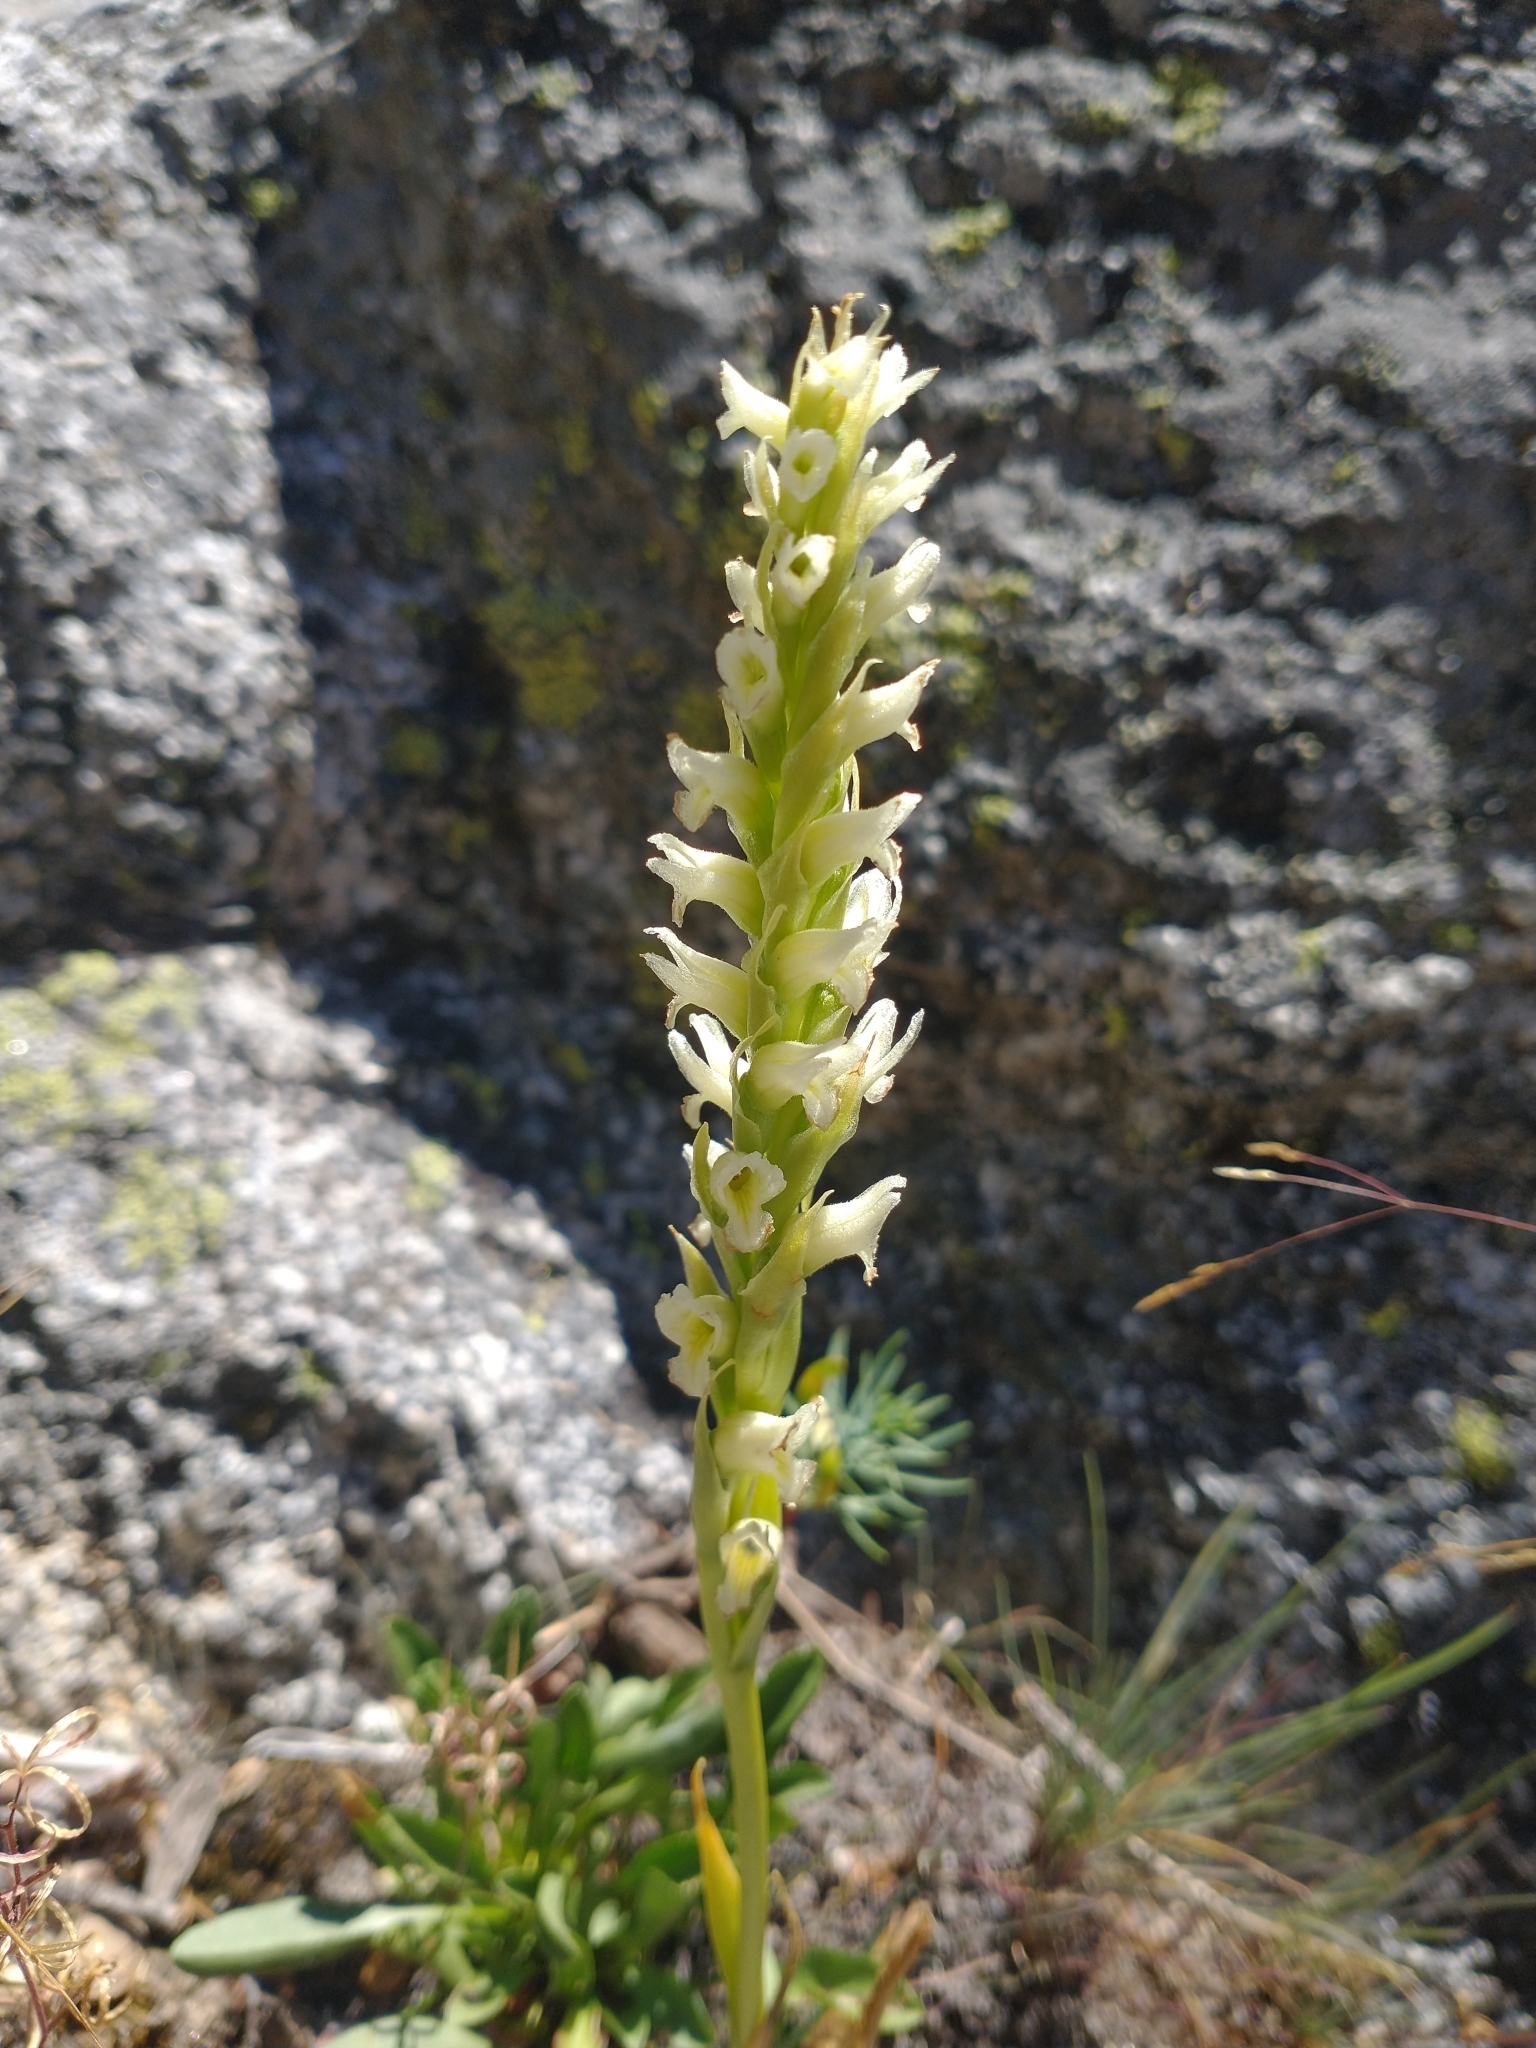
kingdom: Plantae
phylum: Tracheophyta
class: Liliopsida
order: Asparagales
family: Orchidaceae
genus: Spiranthes
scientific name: Spiranthes romanzoffiana
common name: Irish lady's-tresses
